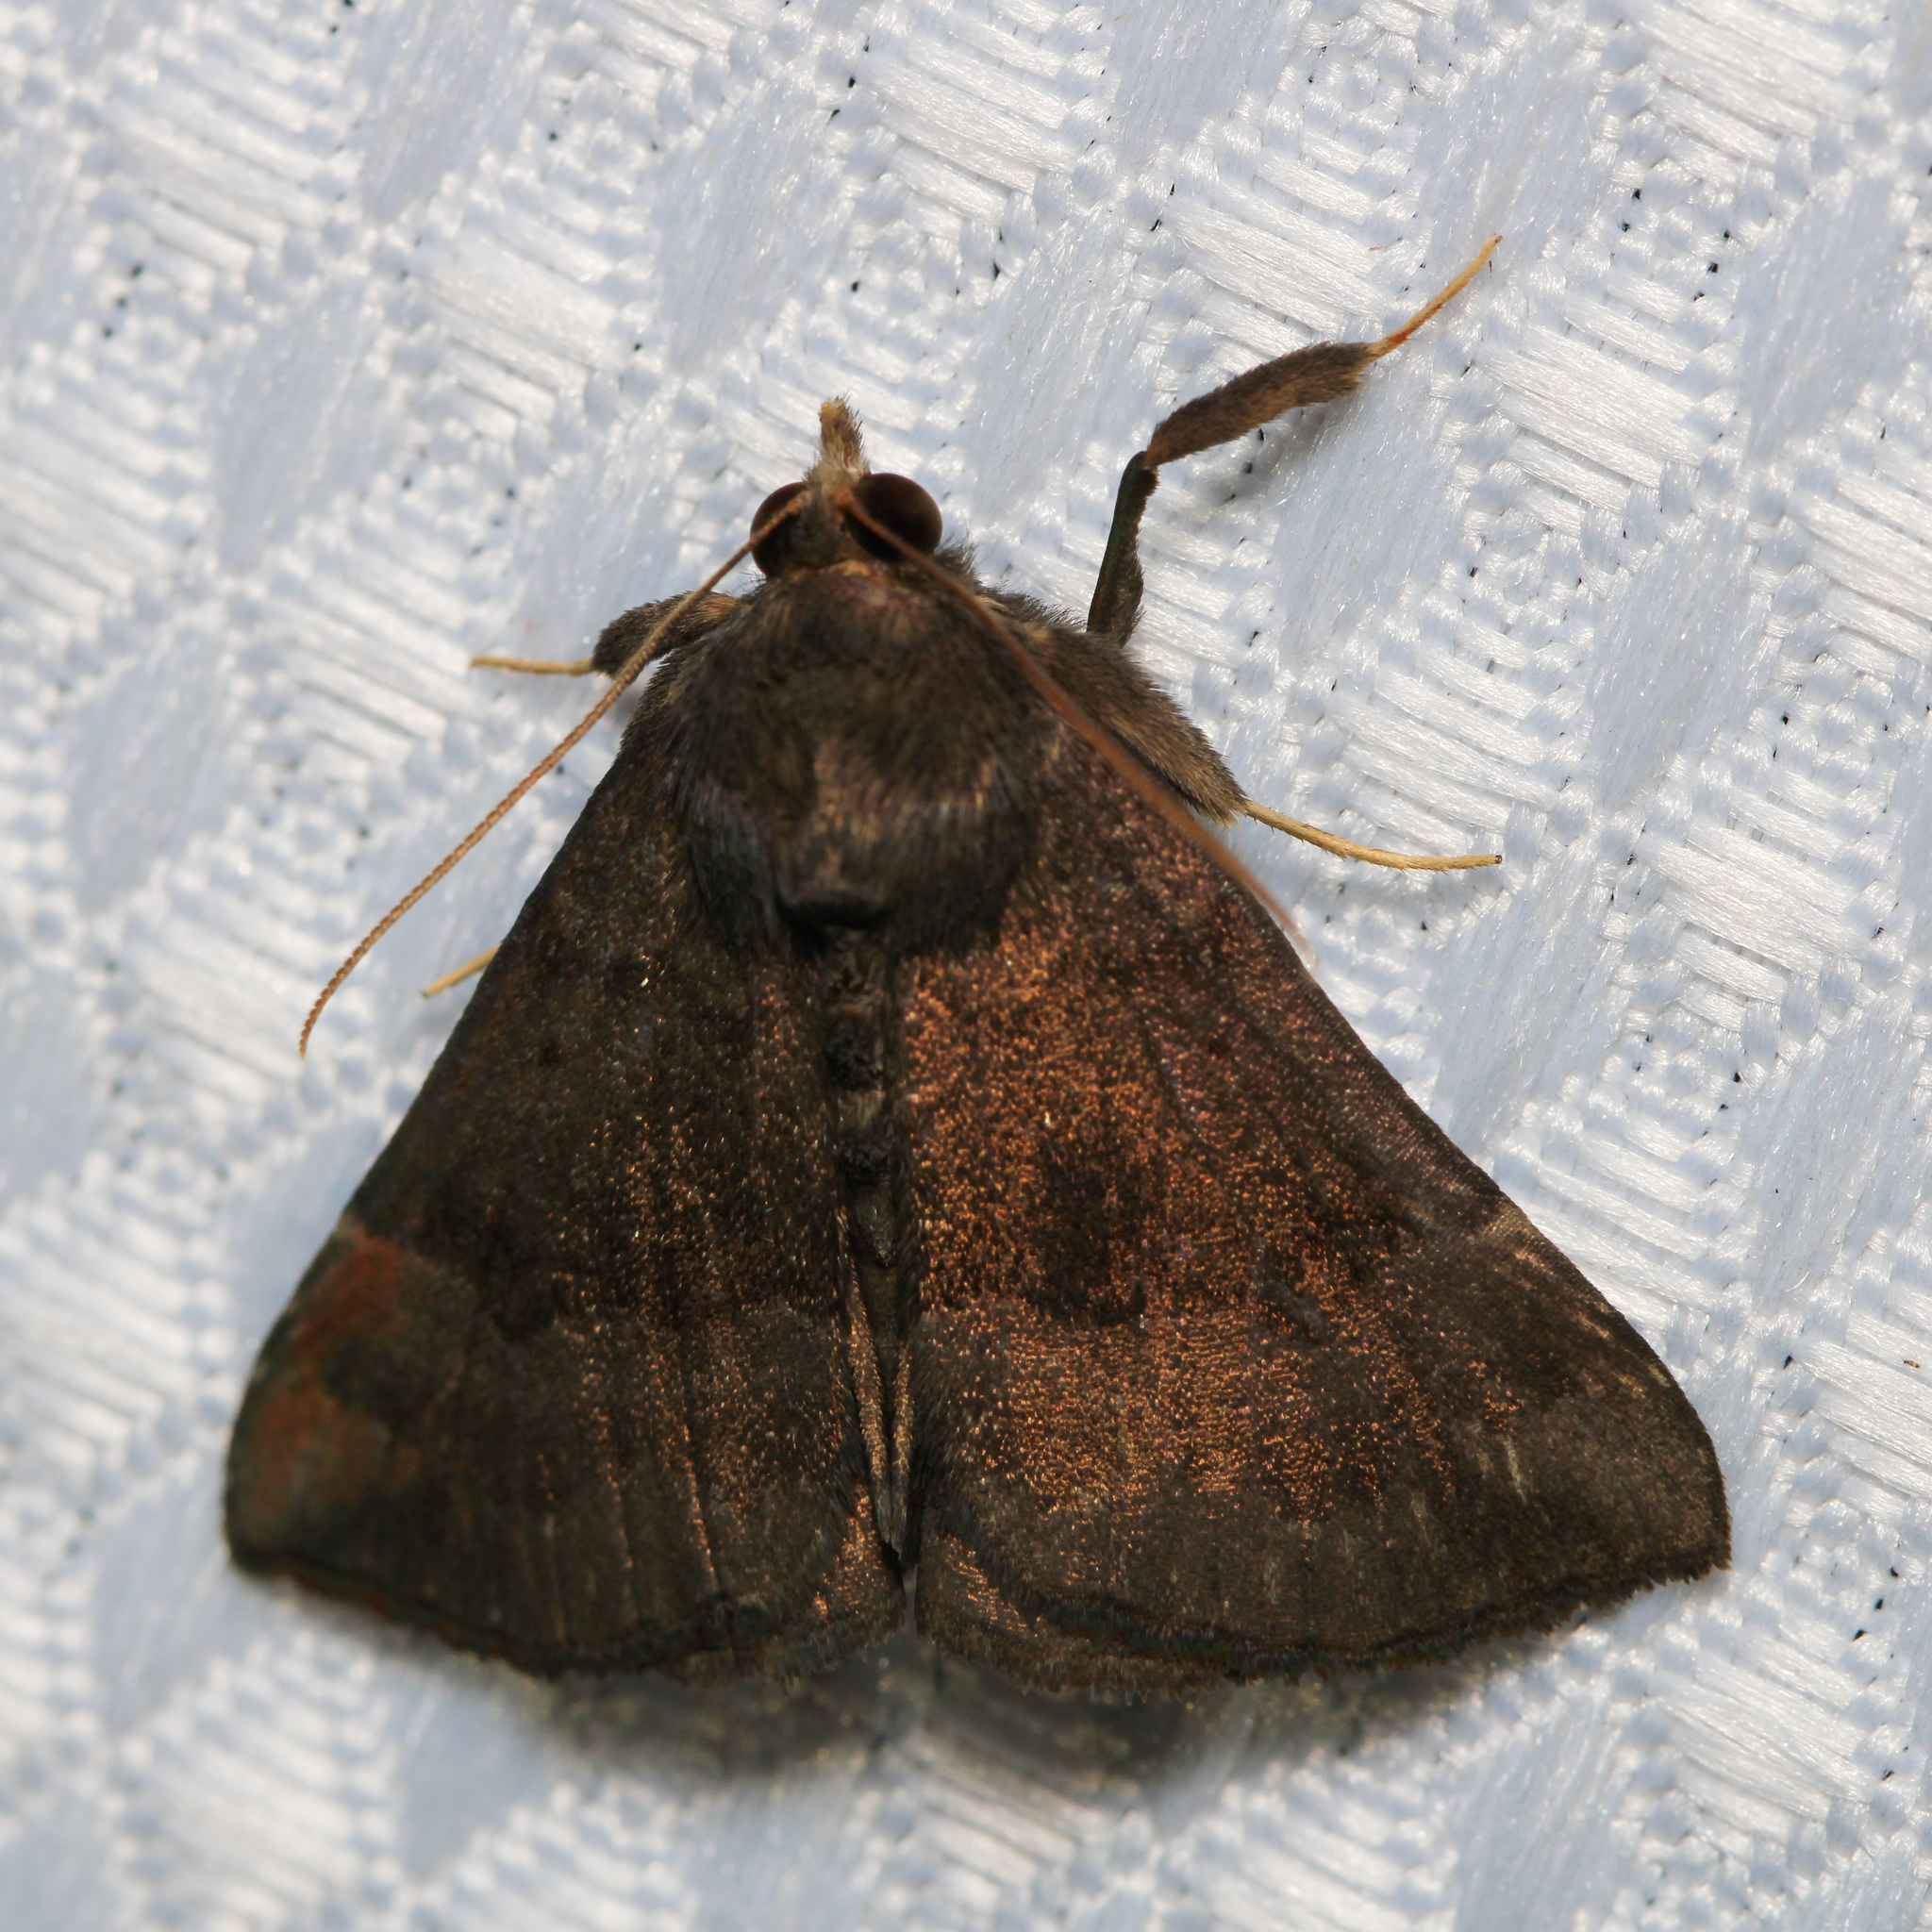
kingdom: Animalia
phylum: Arthropoda
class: Insecta
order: Lepidoptera
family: Erebidae
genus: Hypena
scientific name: Hypena madefactalis
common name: Gray-edged snout
